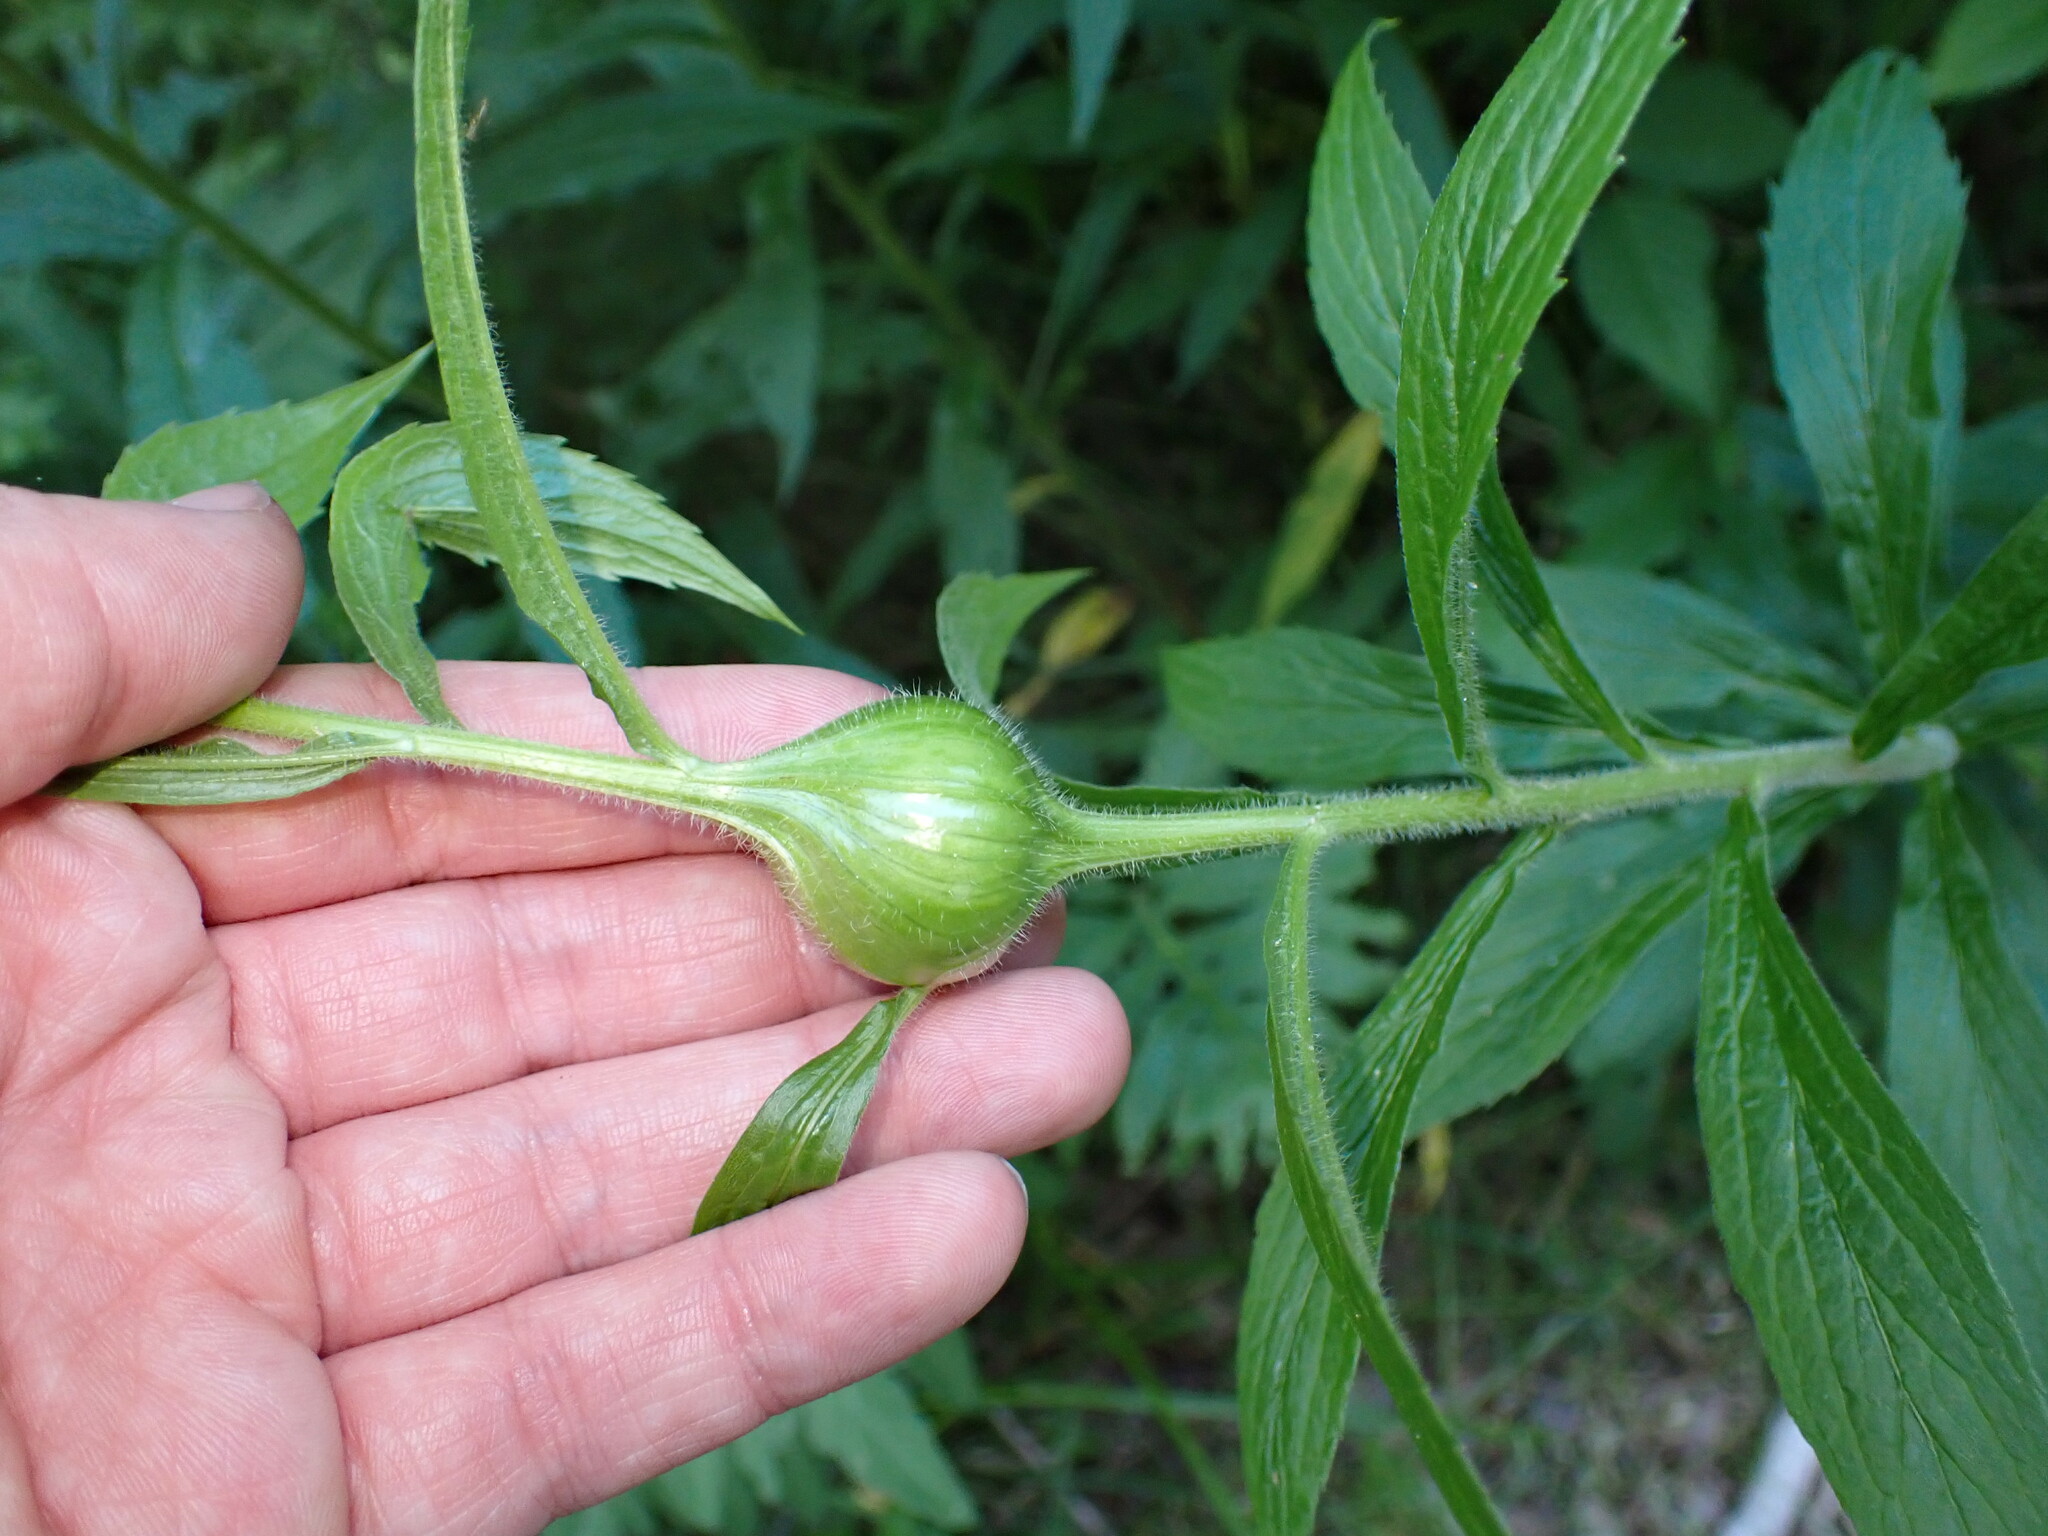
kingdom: Animalia
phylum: Arthropoda
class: Insecta
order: Diptera
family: Tephritidae
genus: Eurosta
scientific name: Eurosta solidaginis
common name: Goldenrod gall fly
